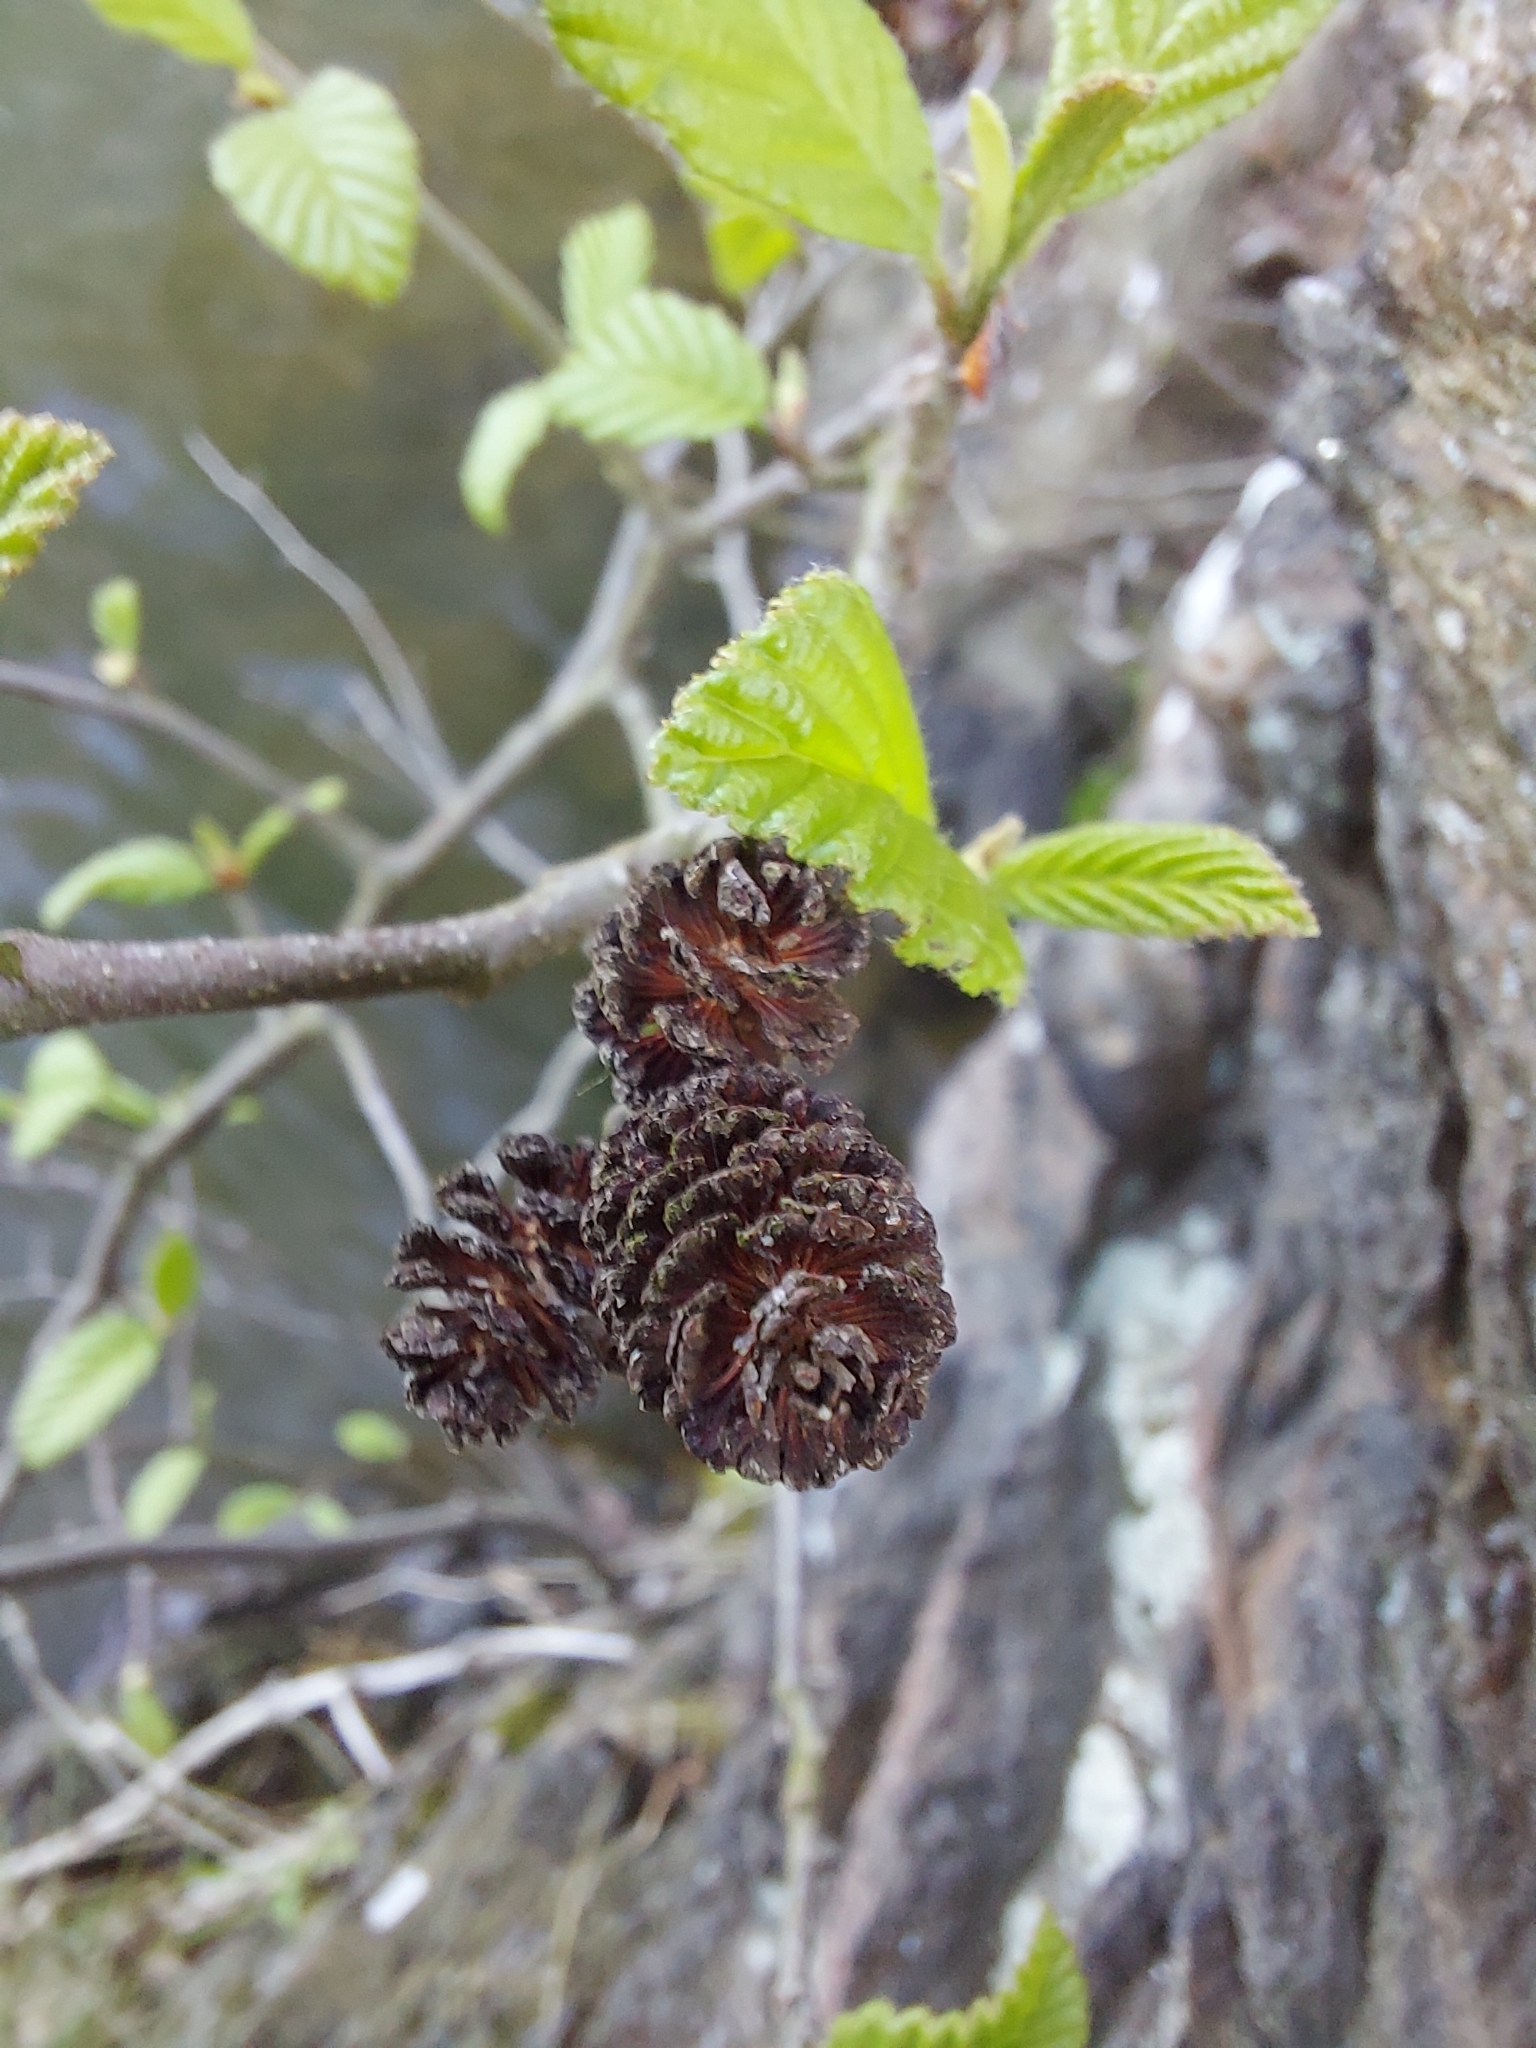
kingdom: Plantae
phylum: Tracheophyta
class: Magnoliopsida
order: Fagales
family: Betulaceae
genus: Alnus
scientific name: Alnus incana
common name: Grey alder
